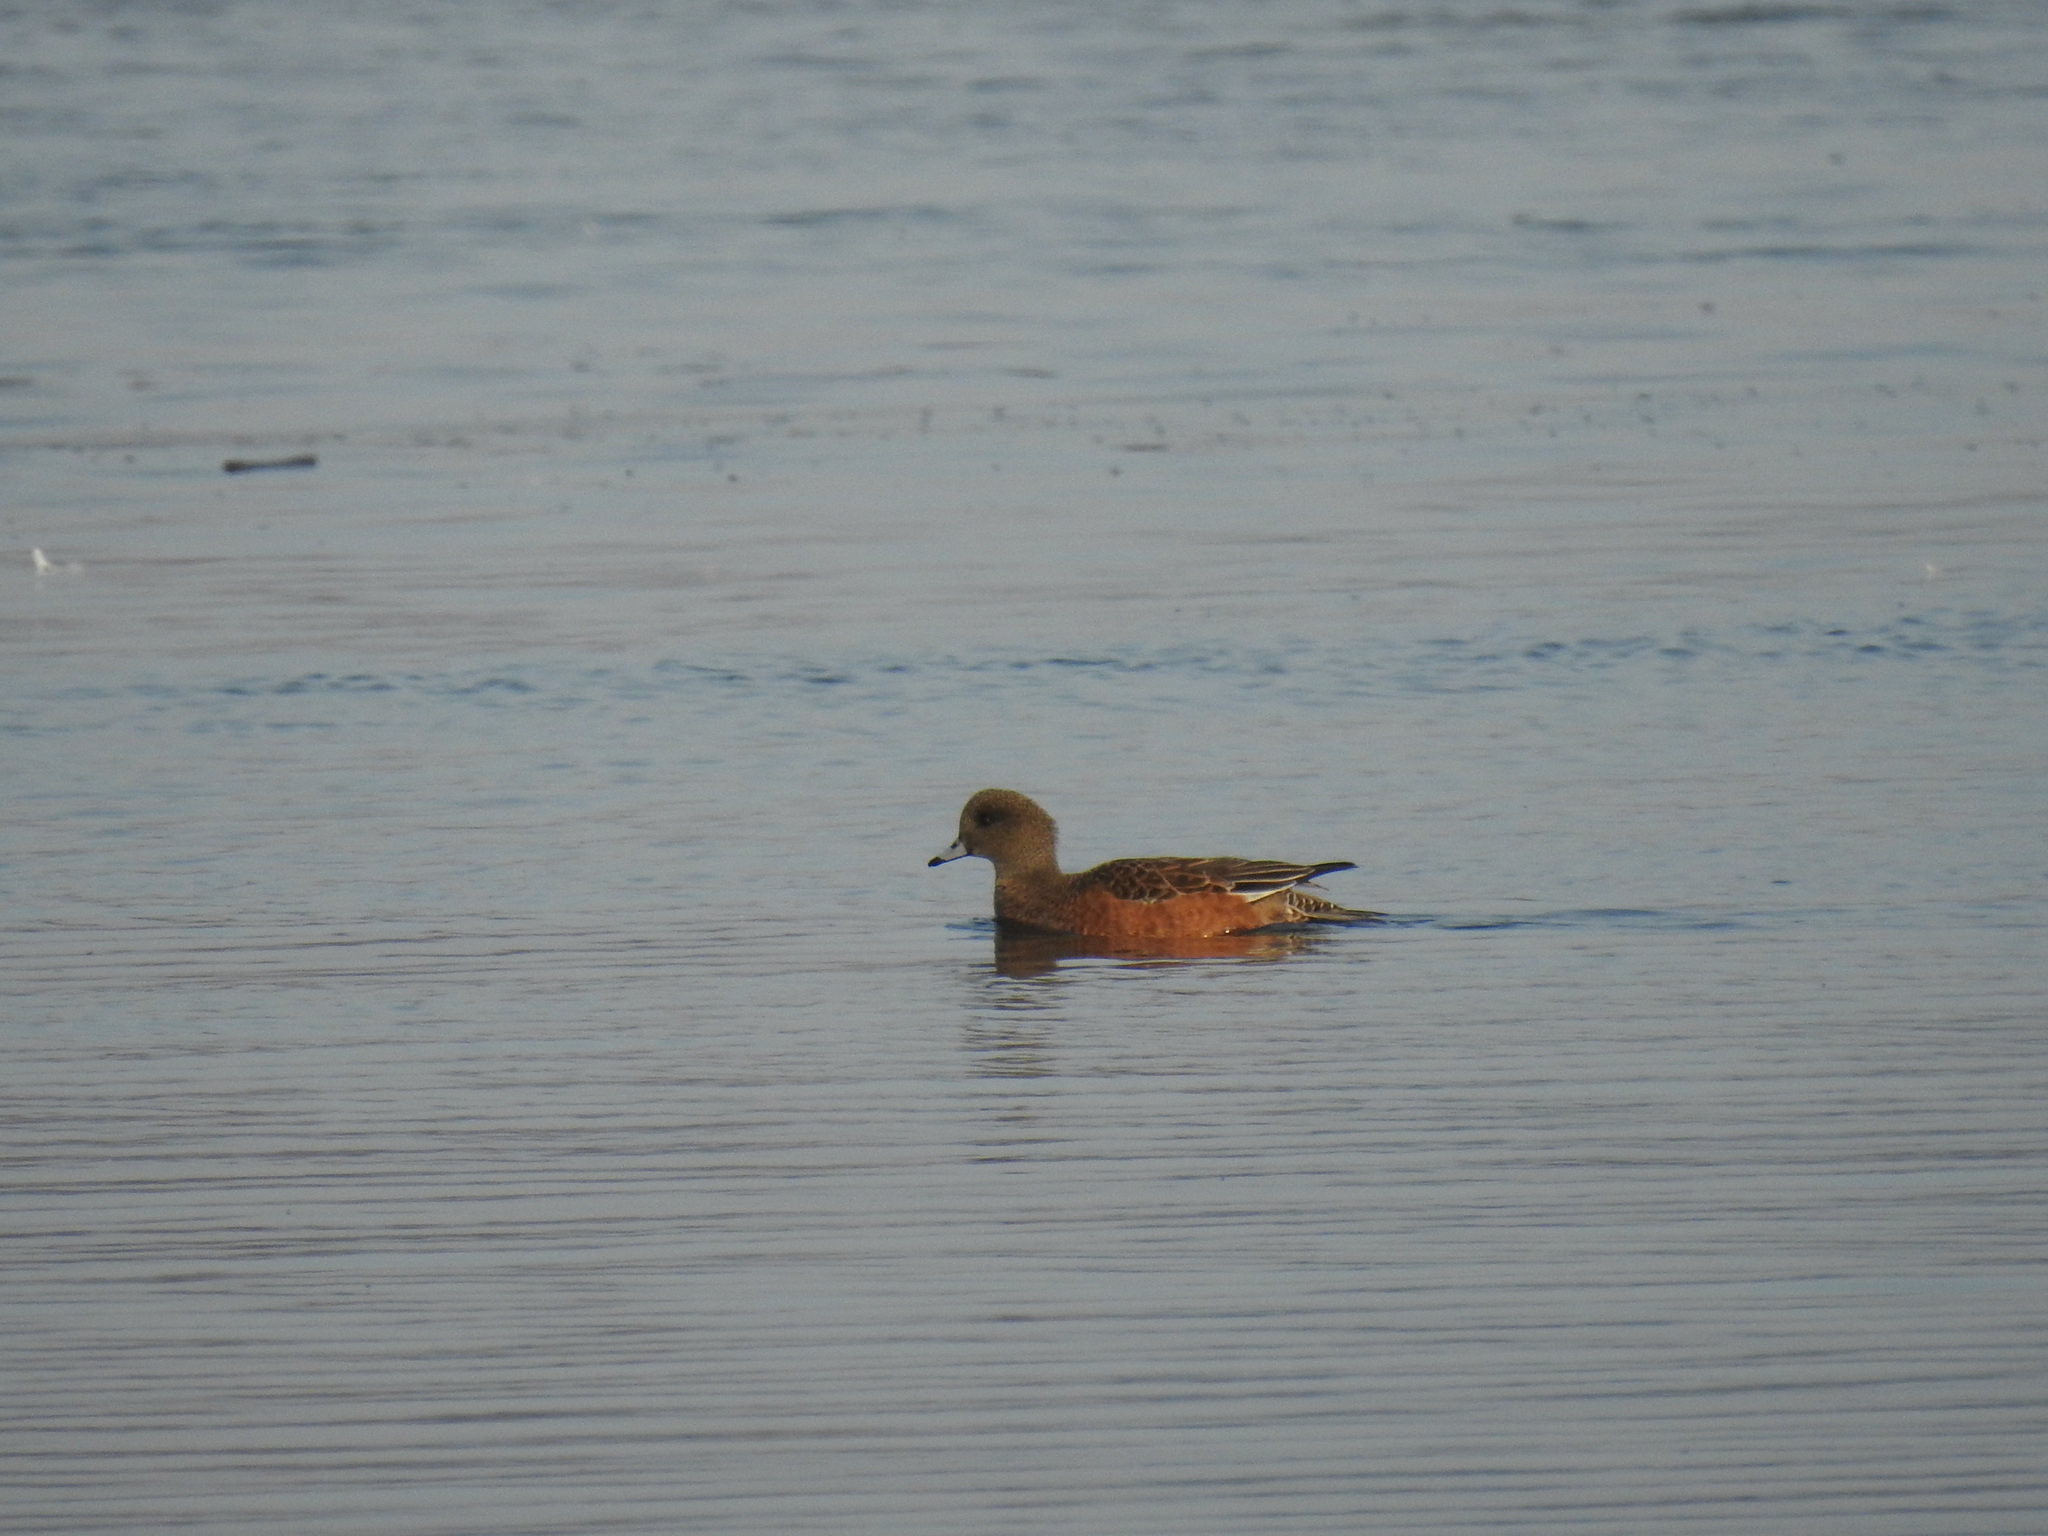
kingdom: Animalia
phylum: Chordata
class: Aves
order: Anseriformes
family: Anatidae
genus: Mareca
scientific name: Mareca americana
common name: American wigeon
